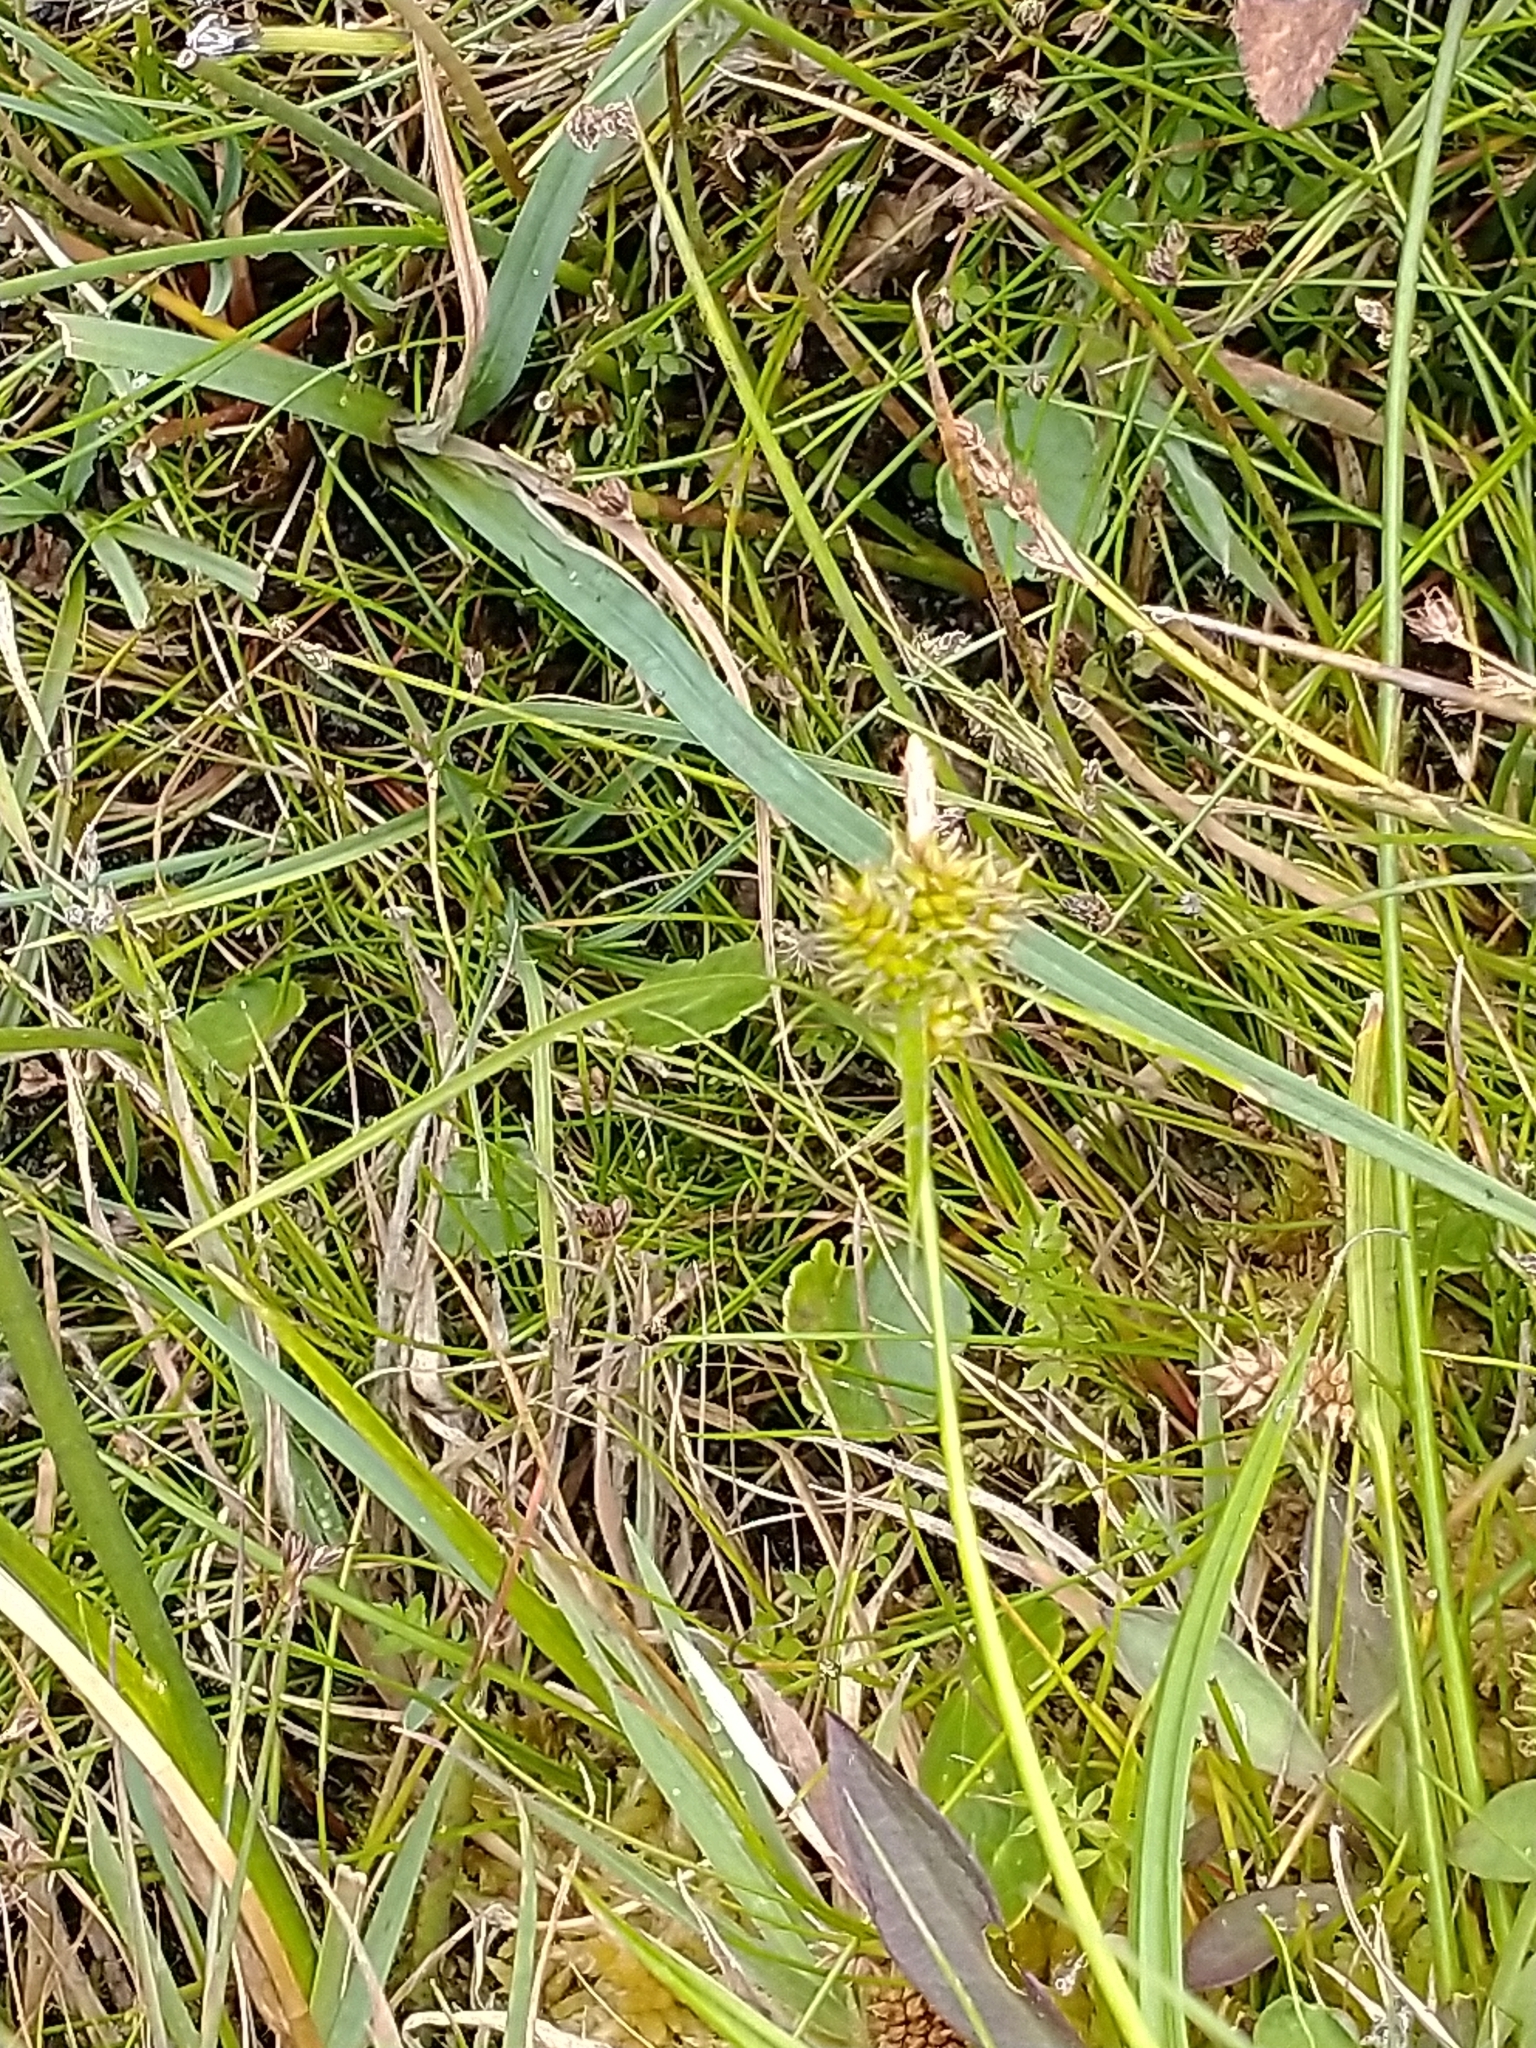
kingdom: Plantae
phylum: Tracheophyta
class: Liliopsida
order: Poales
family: Cyperaceae
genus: Carex
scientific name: Carex demissa
